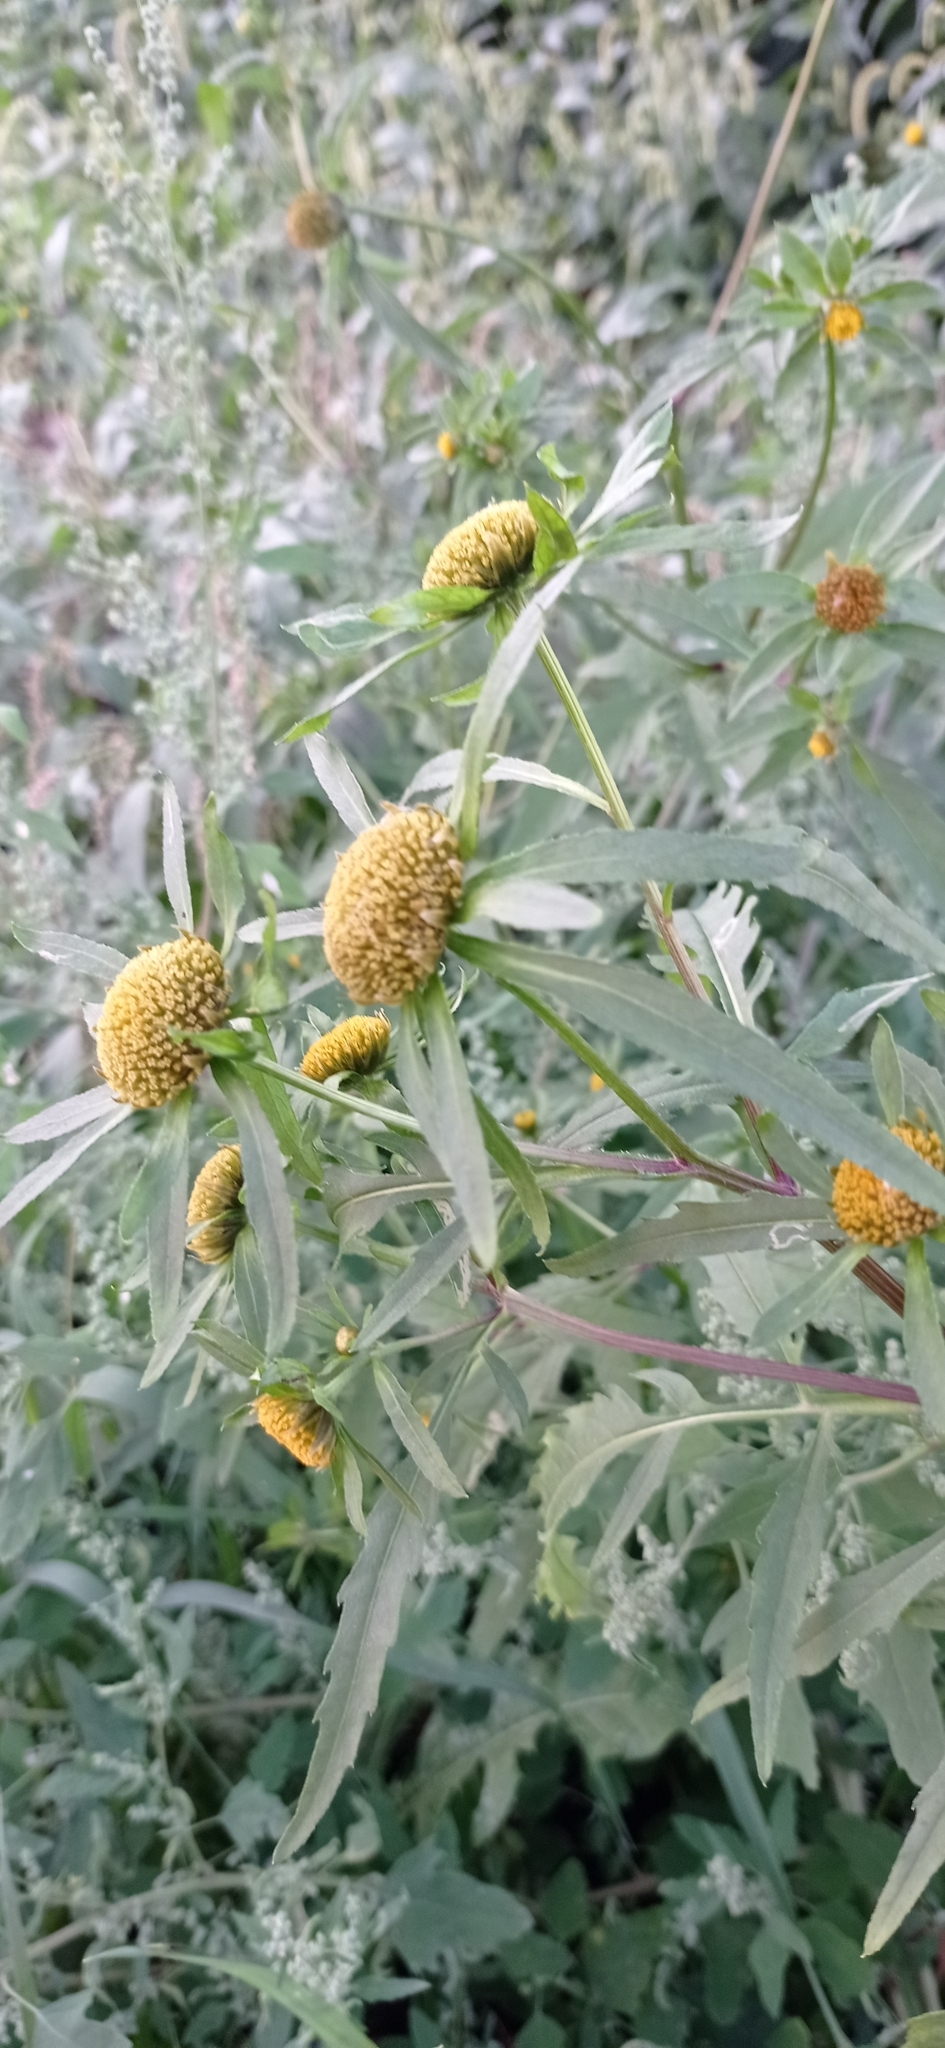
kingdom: Plantae
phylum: Tracheophyta
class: Magnoliopsida
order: Asterales
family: Asteraceae
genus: Bidens
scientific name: Bidens radiata
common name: Radiating bur-marigold
